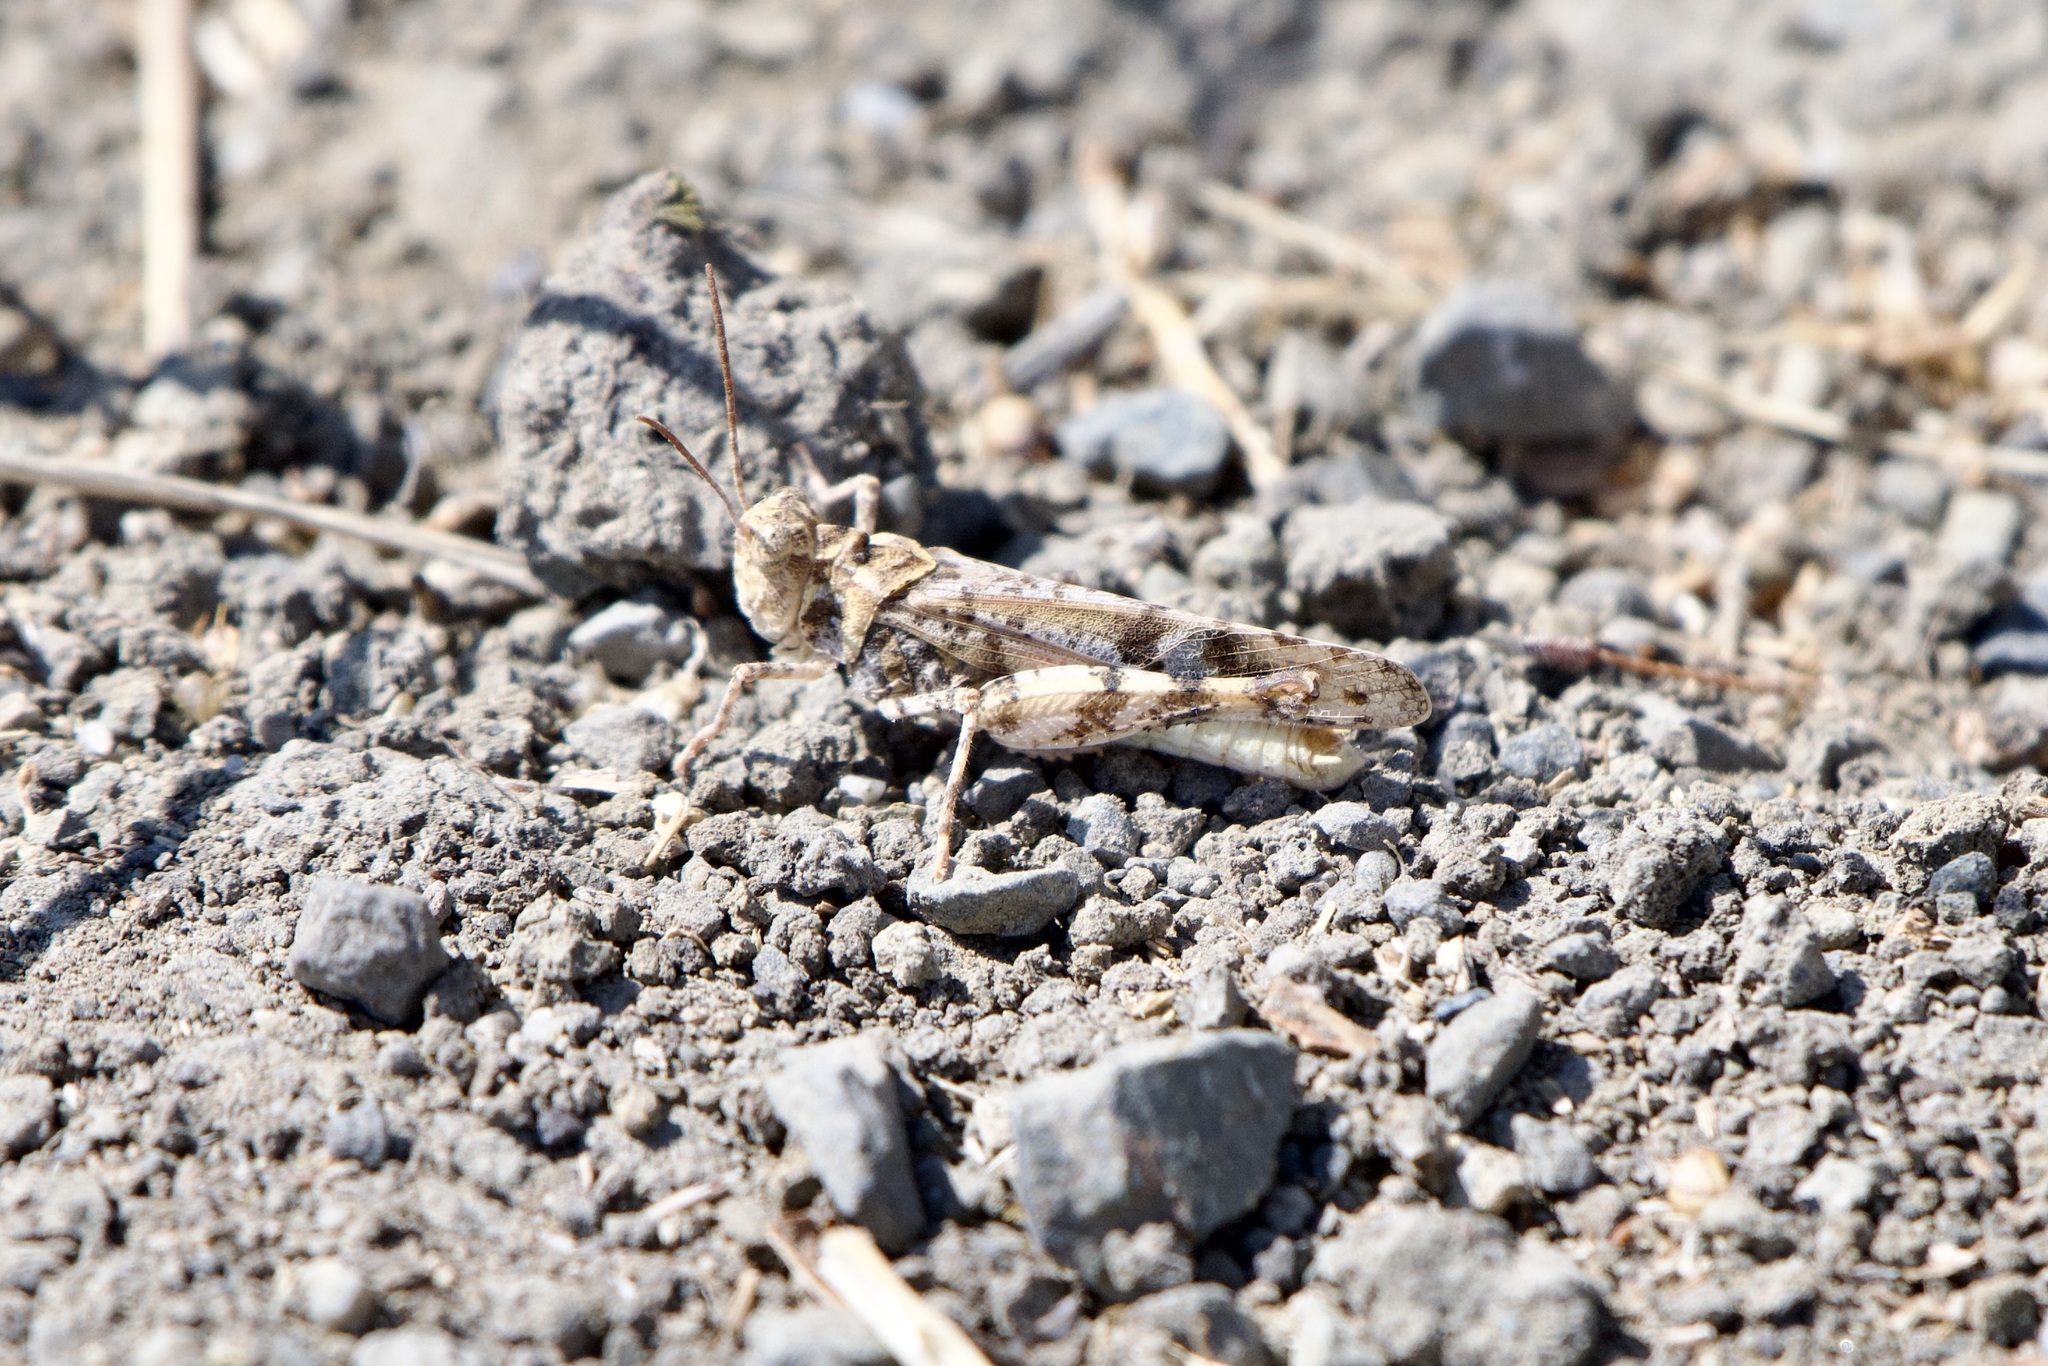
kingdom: Animalia
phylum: Arthropoda
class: Insecta
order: Orthoptera
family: Acrididae
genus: Dissosteira
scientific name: Dissosteira pictipennis
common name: California rose-winged grasshopper
